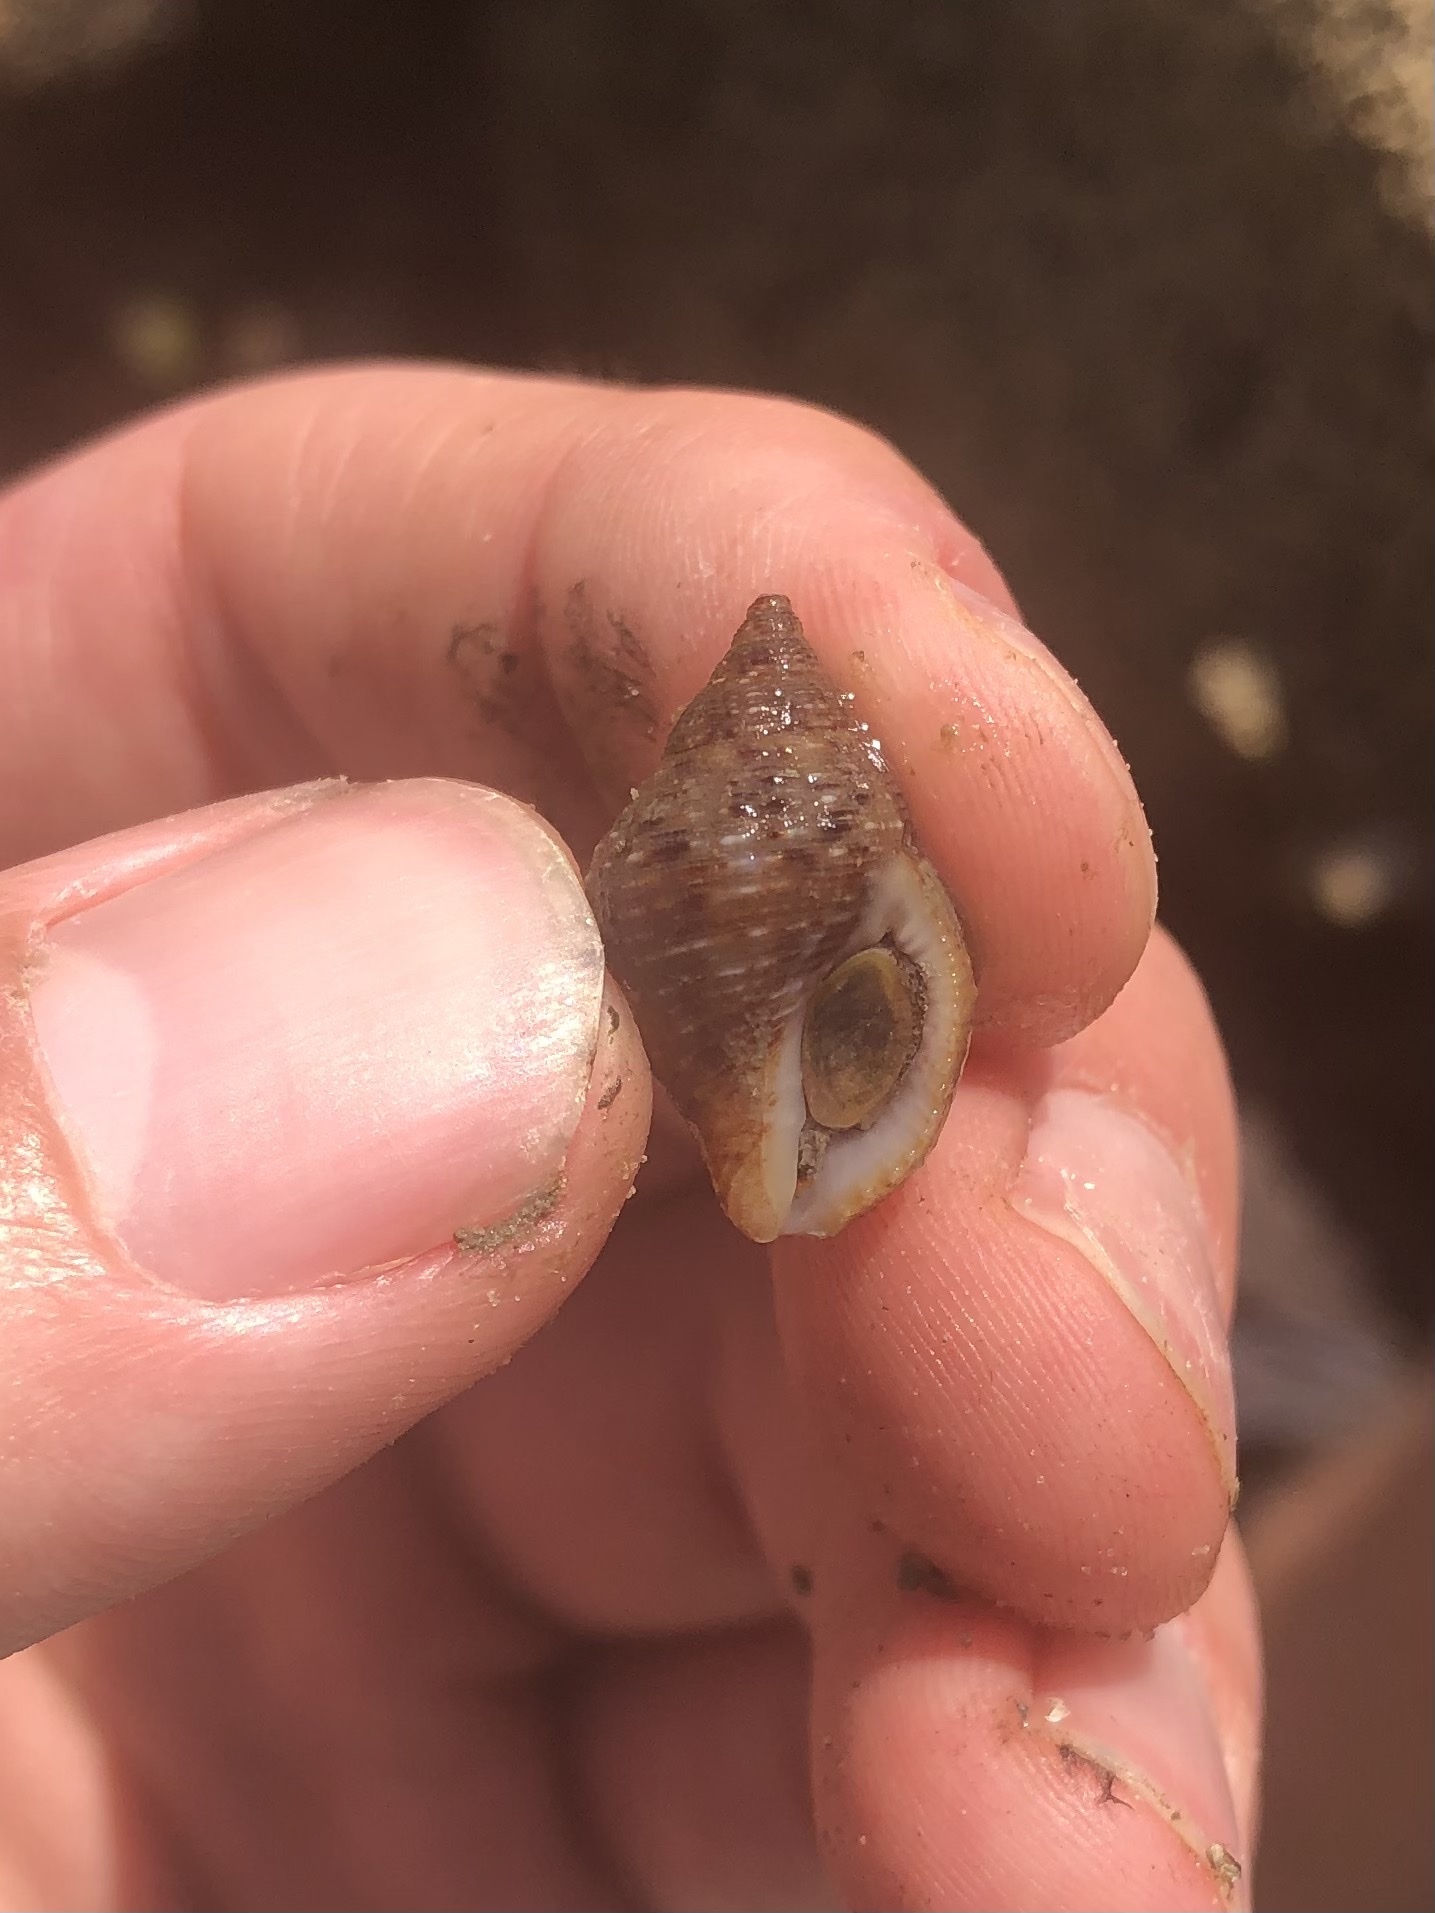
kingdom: Animalia
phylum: Mollusca
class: Gastropoda
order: Neogastropoda
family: Pisaniidae
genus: Gemophos
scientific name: Gemophos tinctus
